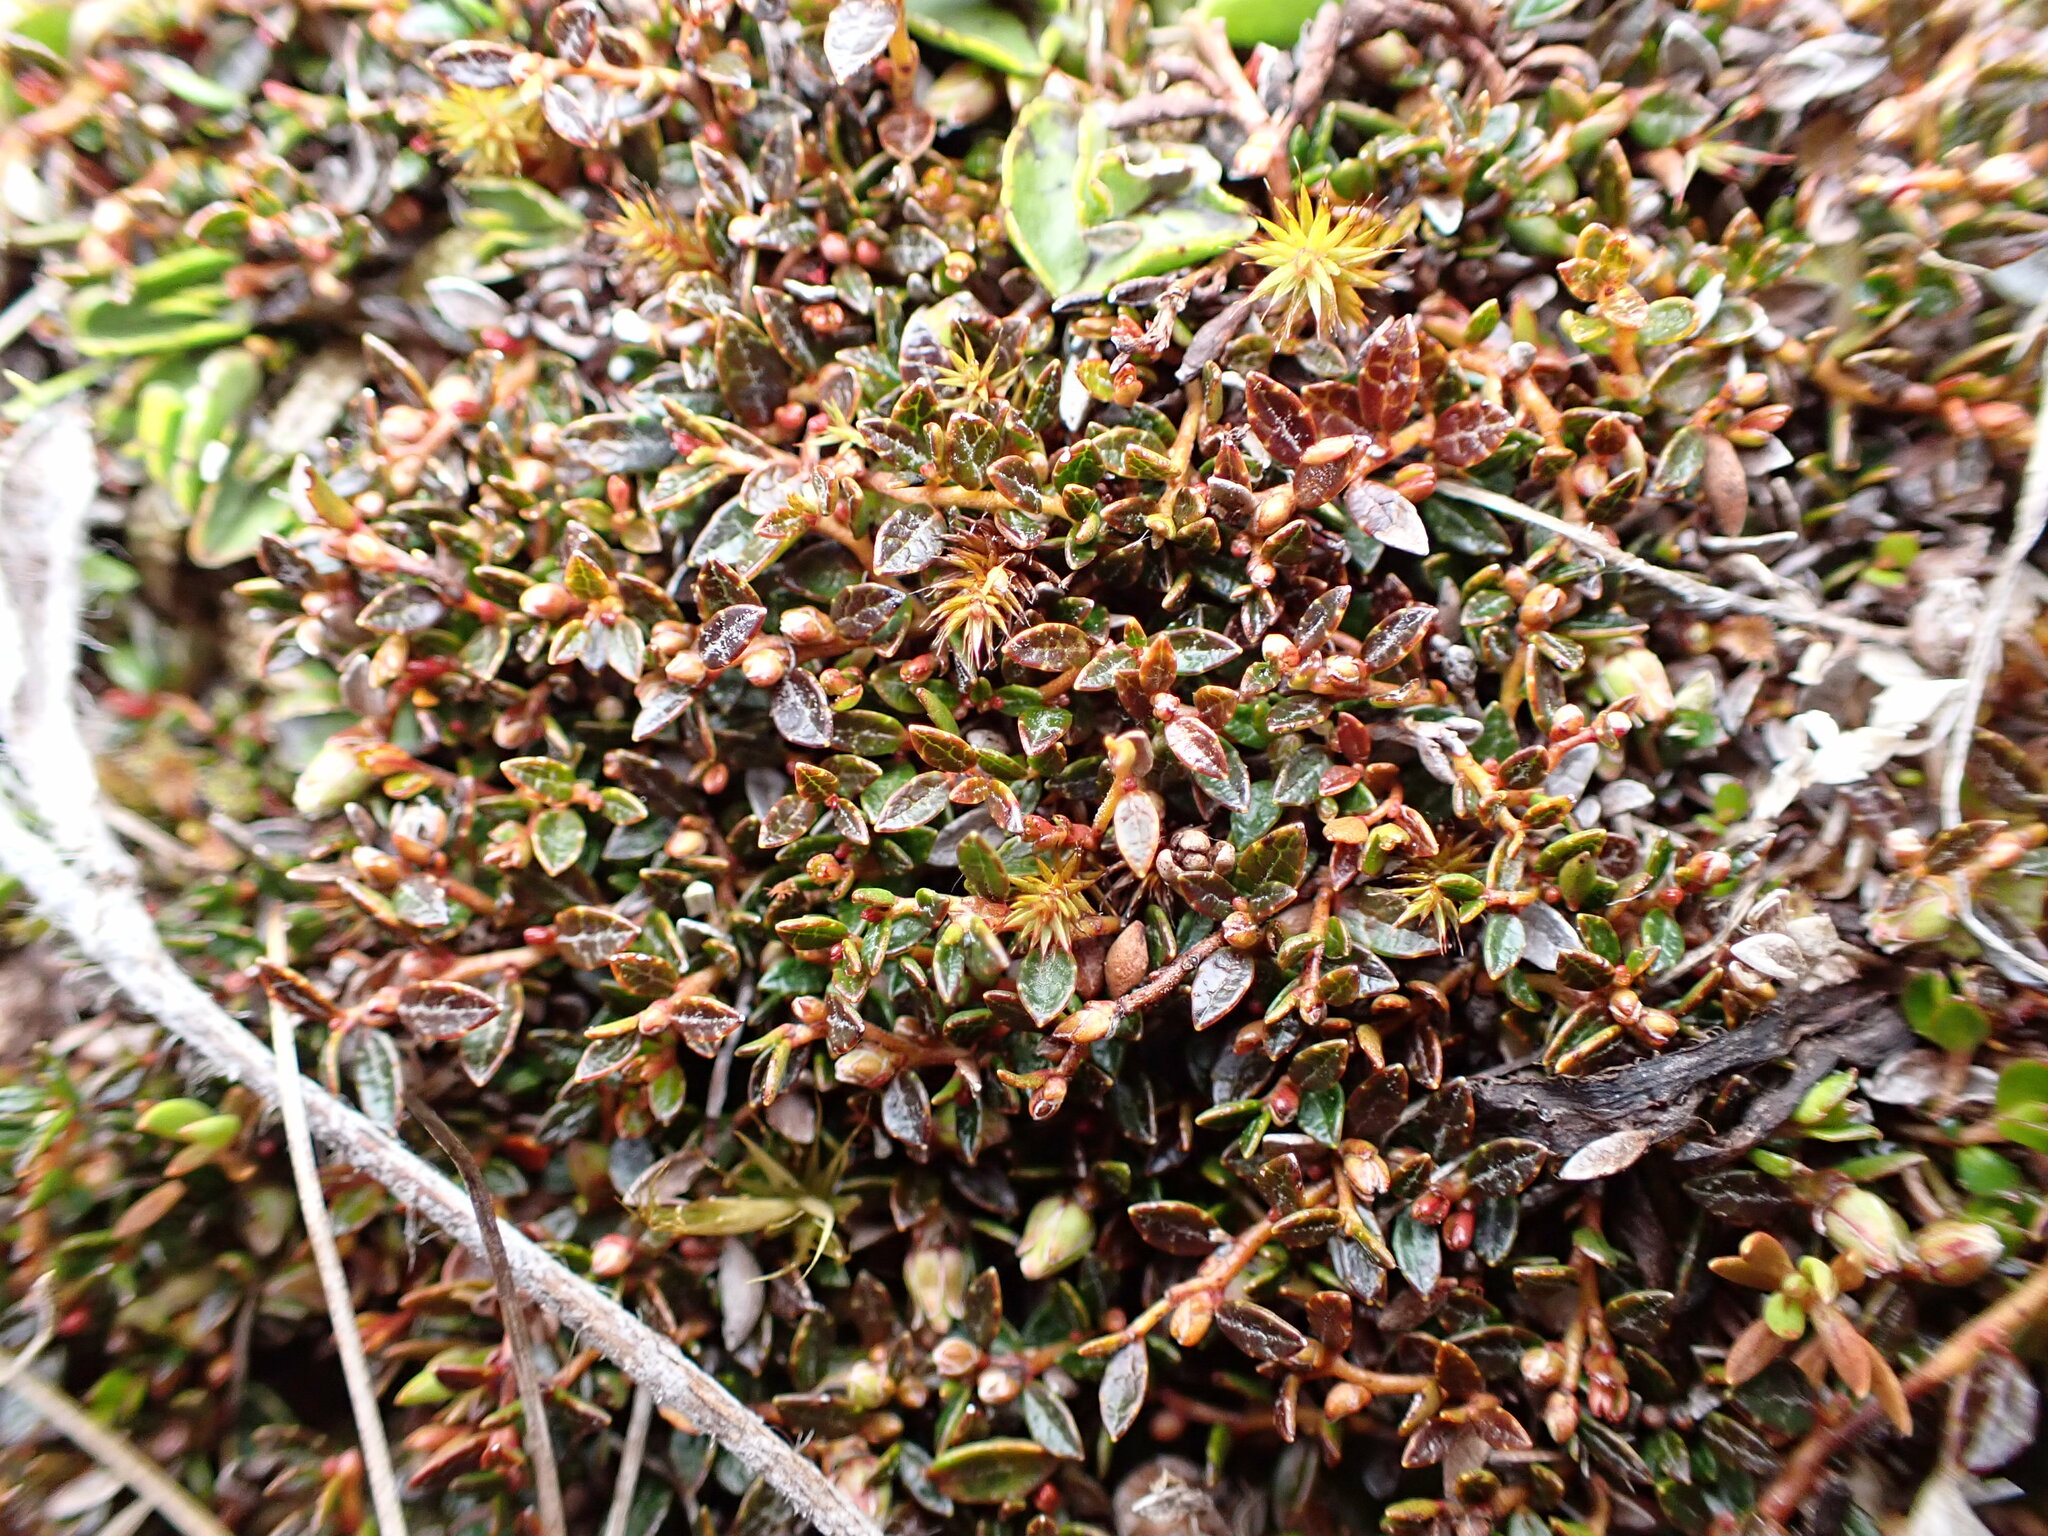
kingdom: Plantae
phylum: Tracheophyta
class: Magnoliopsida
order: Ericales
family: Ericaceae
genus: Gaultheria
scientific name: Gaultheria parvula
